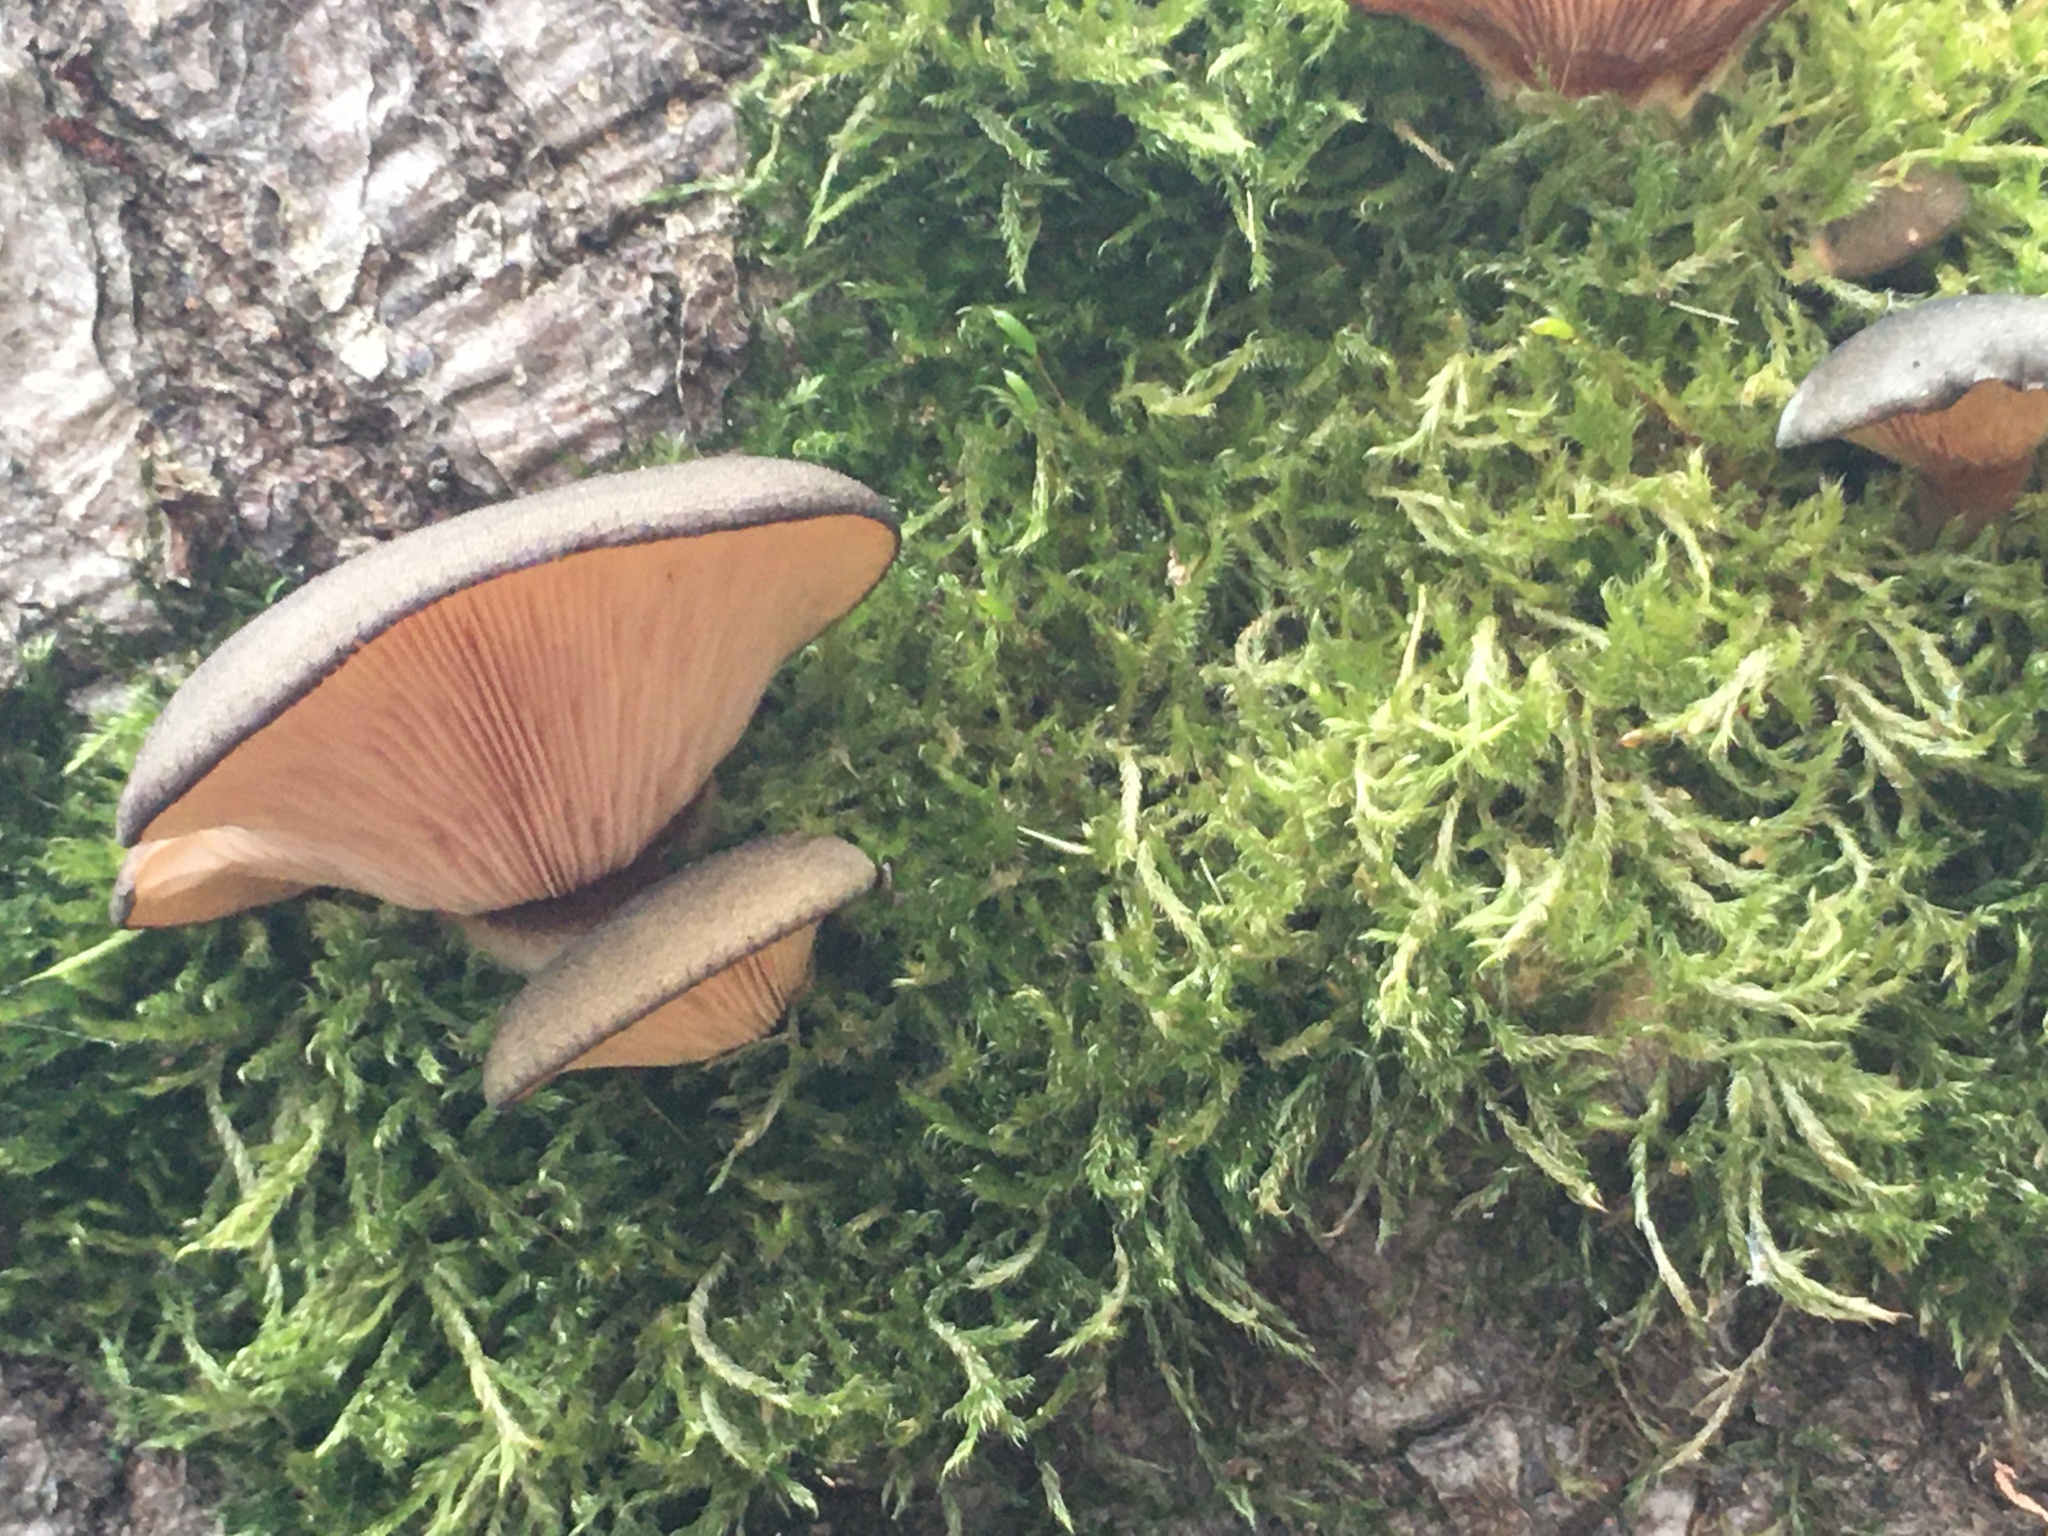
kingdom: Fungi
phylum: Basidiomycota
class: Agaricomycetes
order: Agaricales
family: Sarcomyxaceae
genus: Sarcomyxa
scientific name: Sarcomyxa serotina
